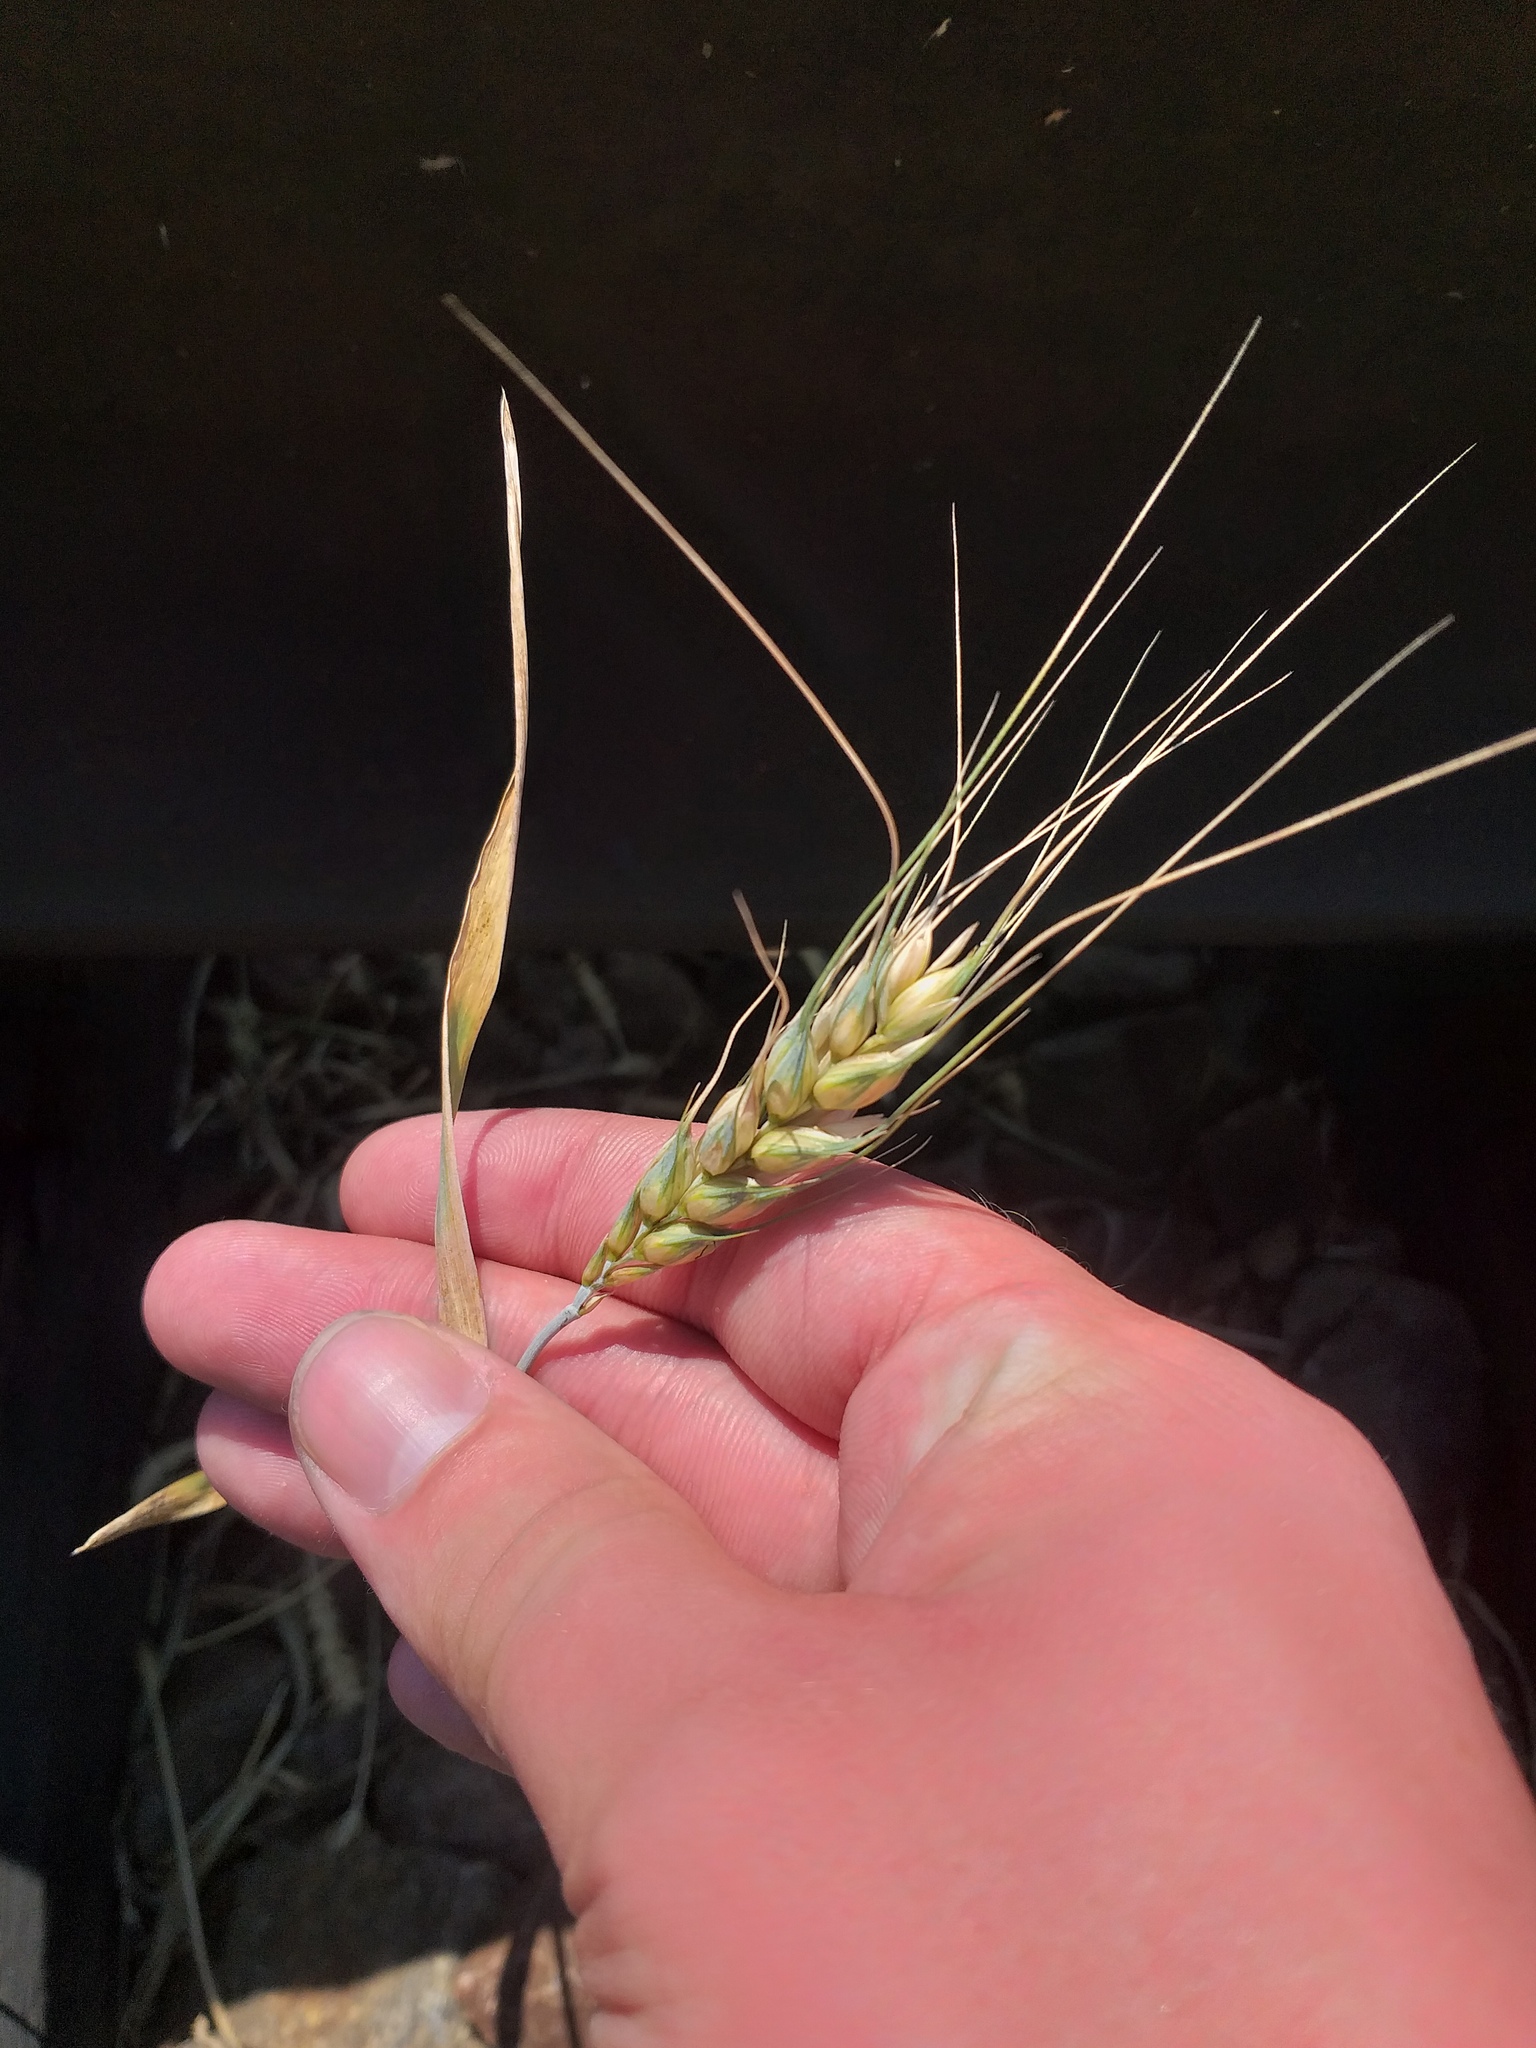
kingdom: Plantae
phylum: Tracheophyta
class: Liliopsida
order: Poales
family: Poaceae
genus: Triticum
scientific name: Triticum aestivum
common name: Common wheat
